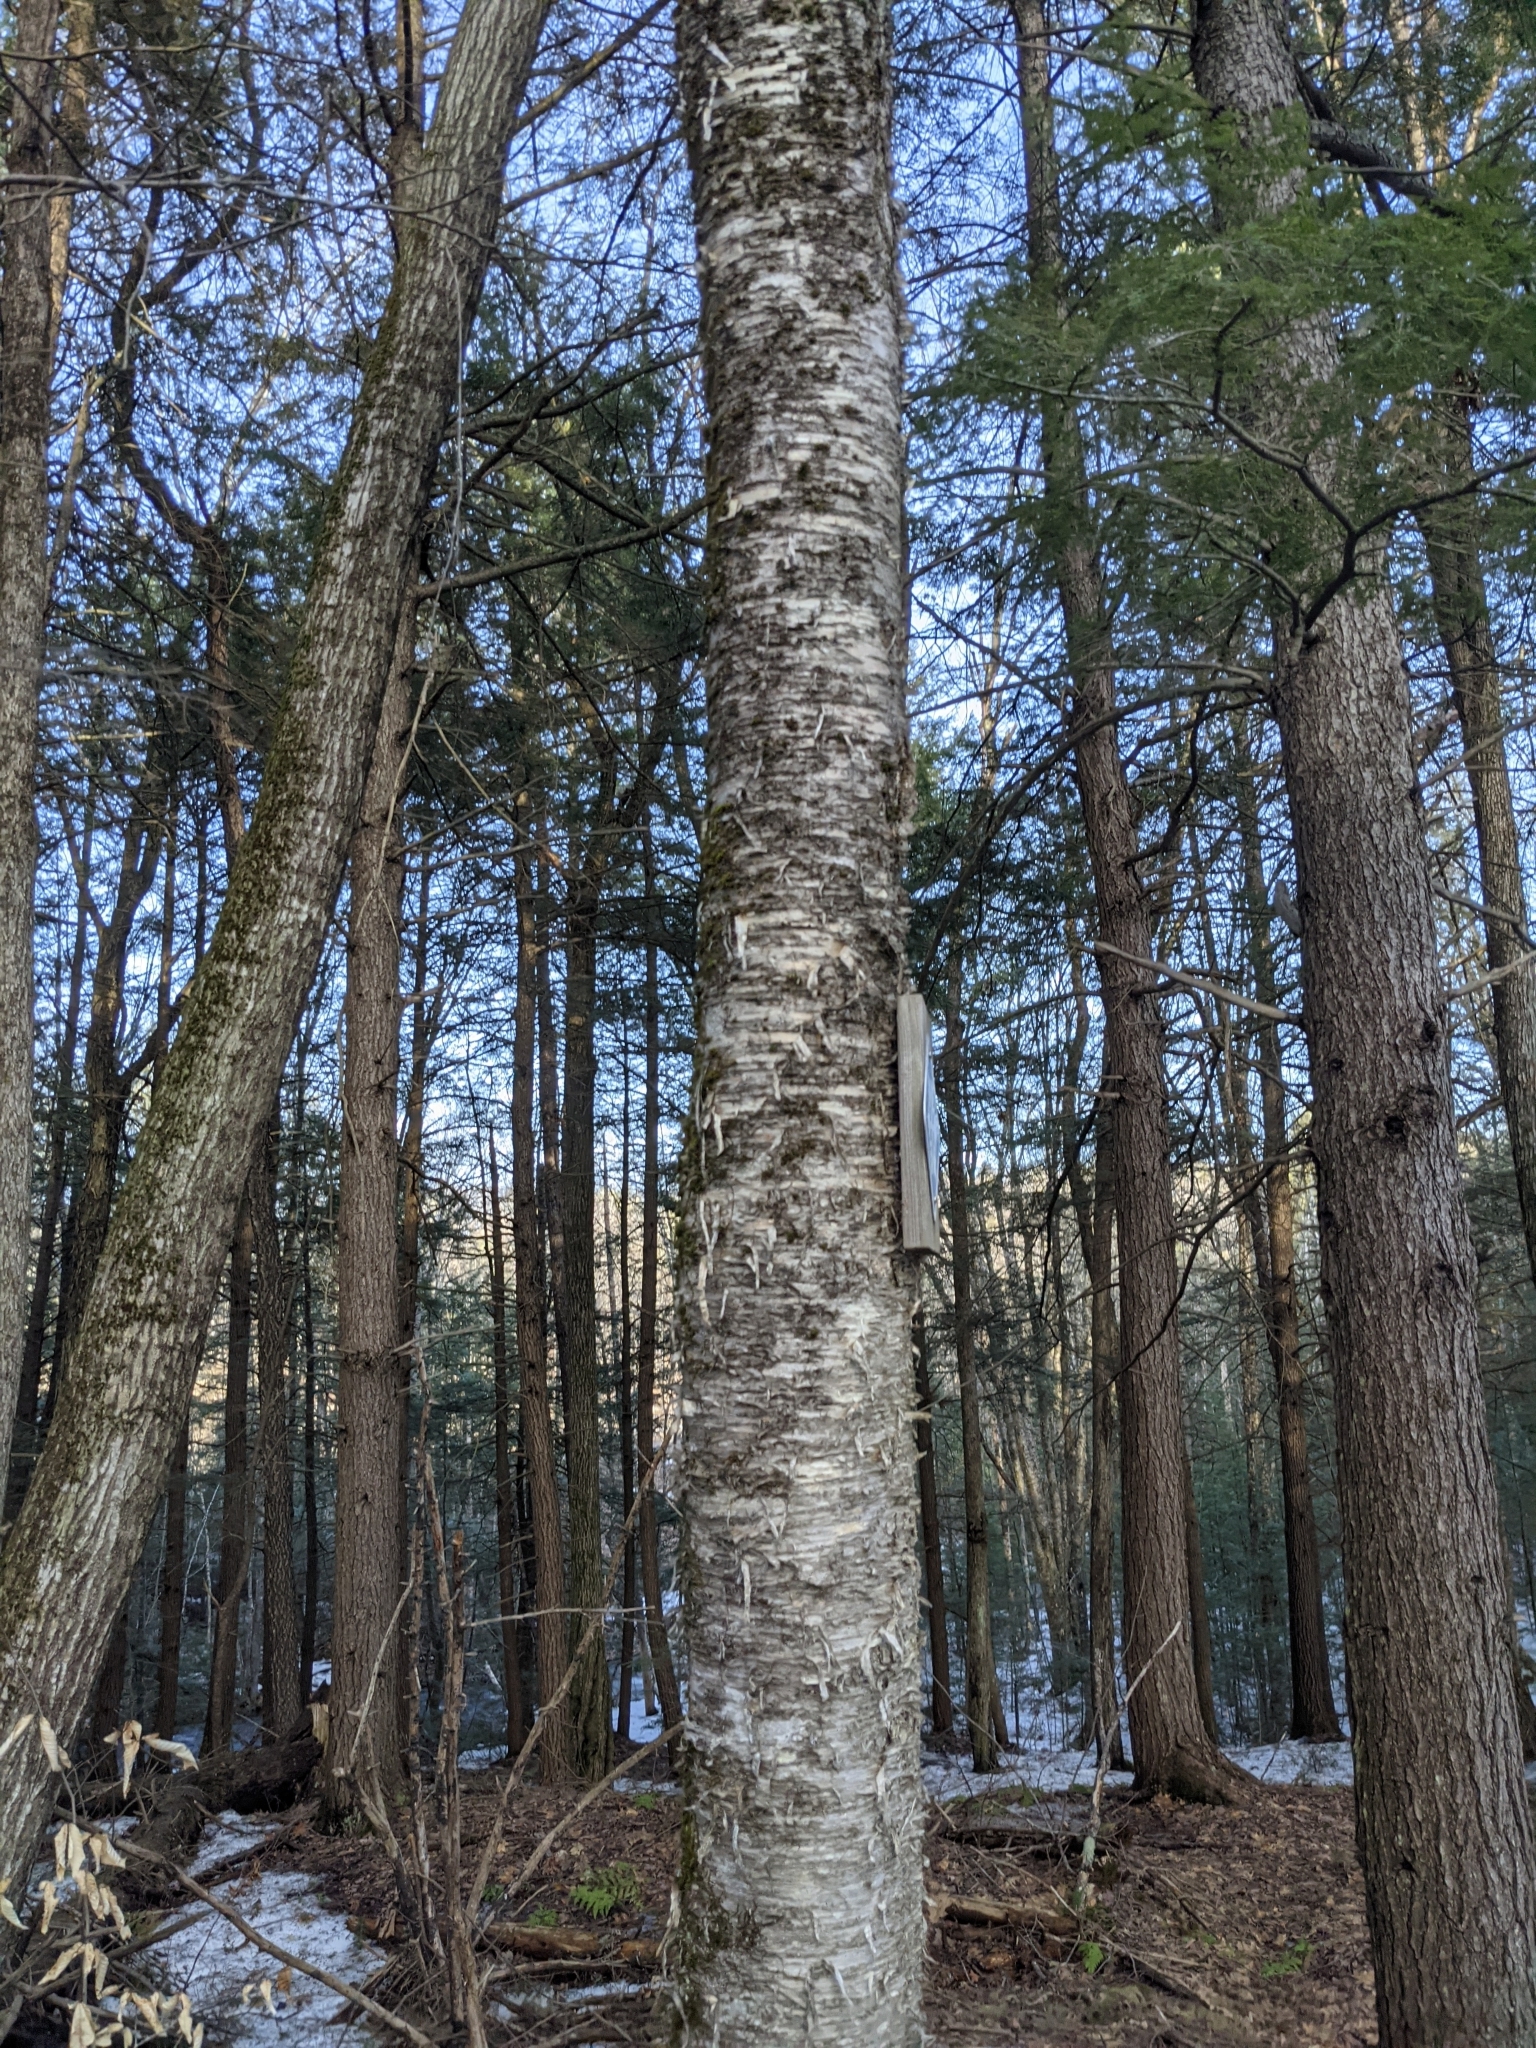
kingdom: Plantae
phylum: Tracheophyta
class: Magnoliopsida
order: Fagales
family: Betulaceae
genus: Betula
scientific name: Betula alleghaniensis
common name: Yellow birch
